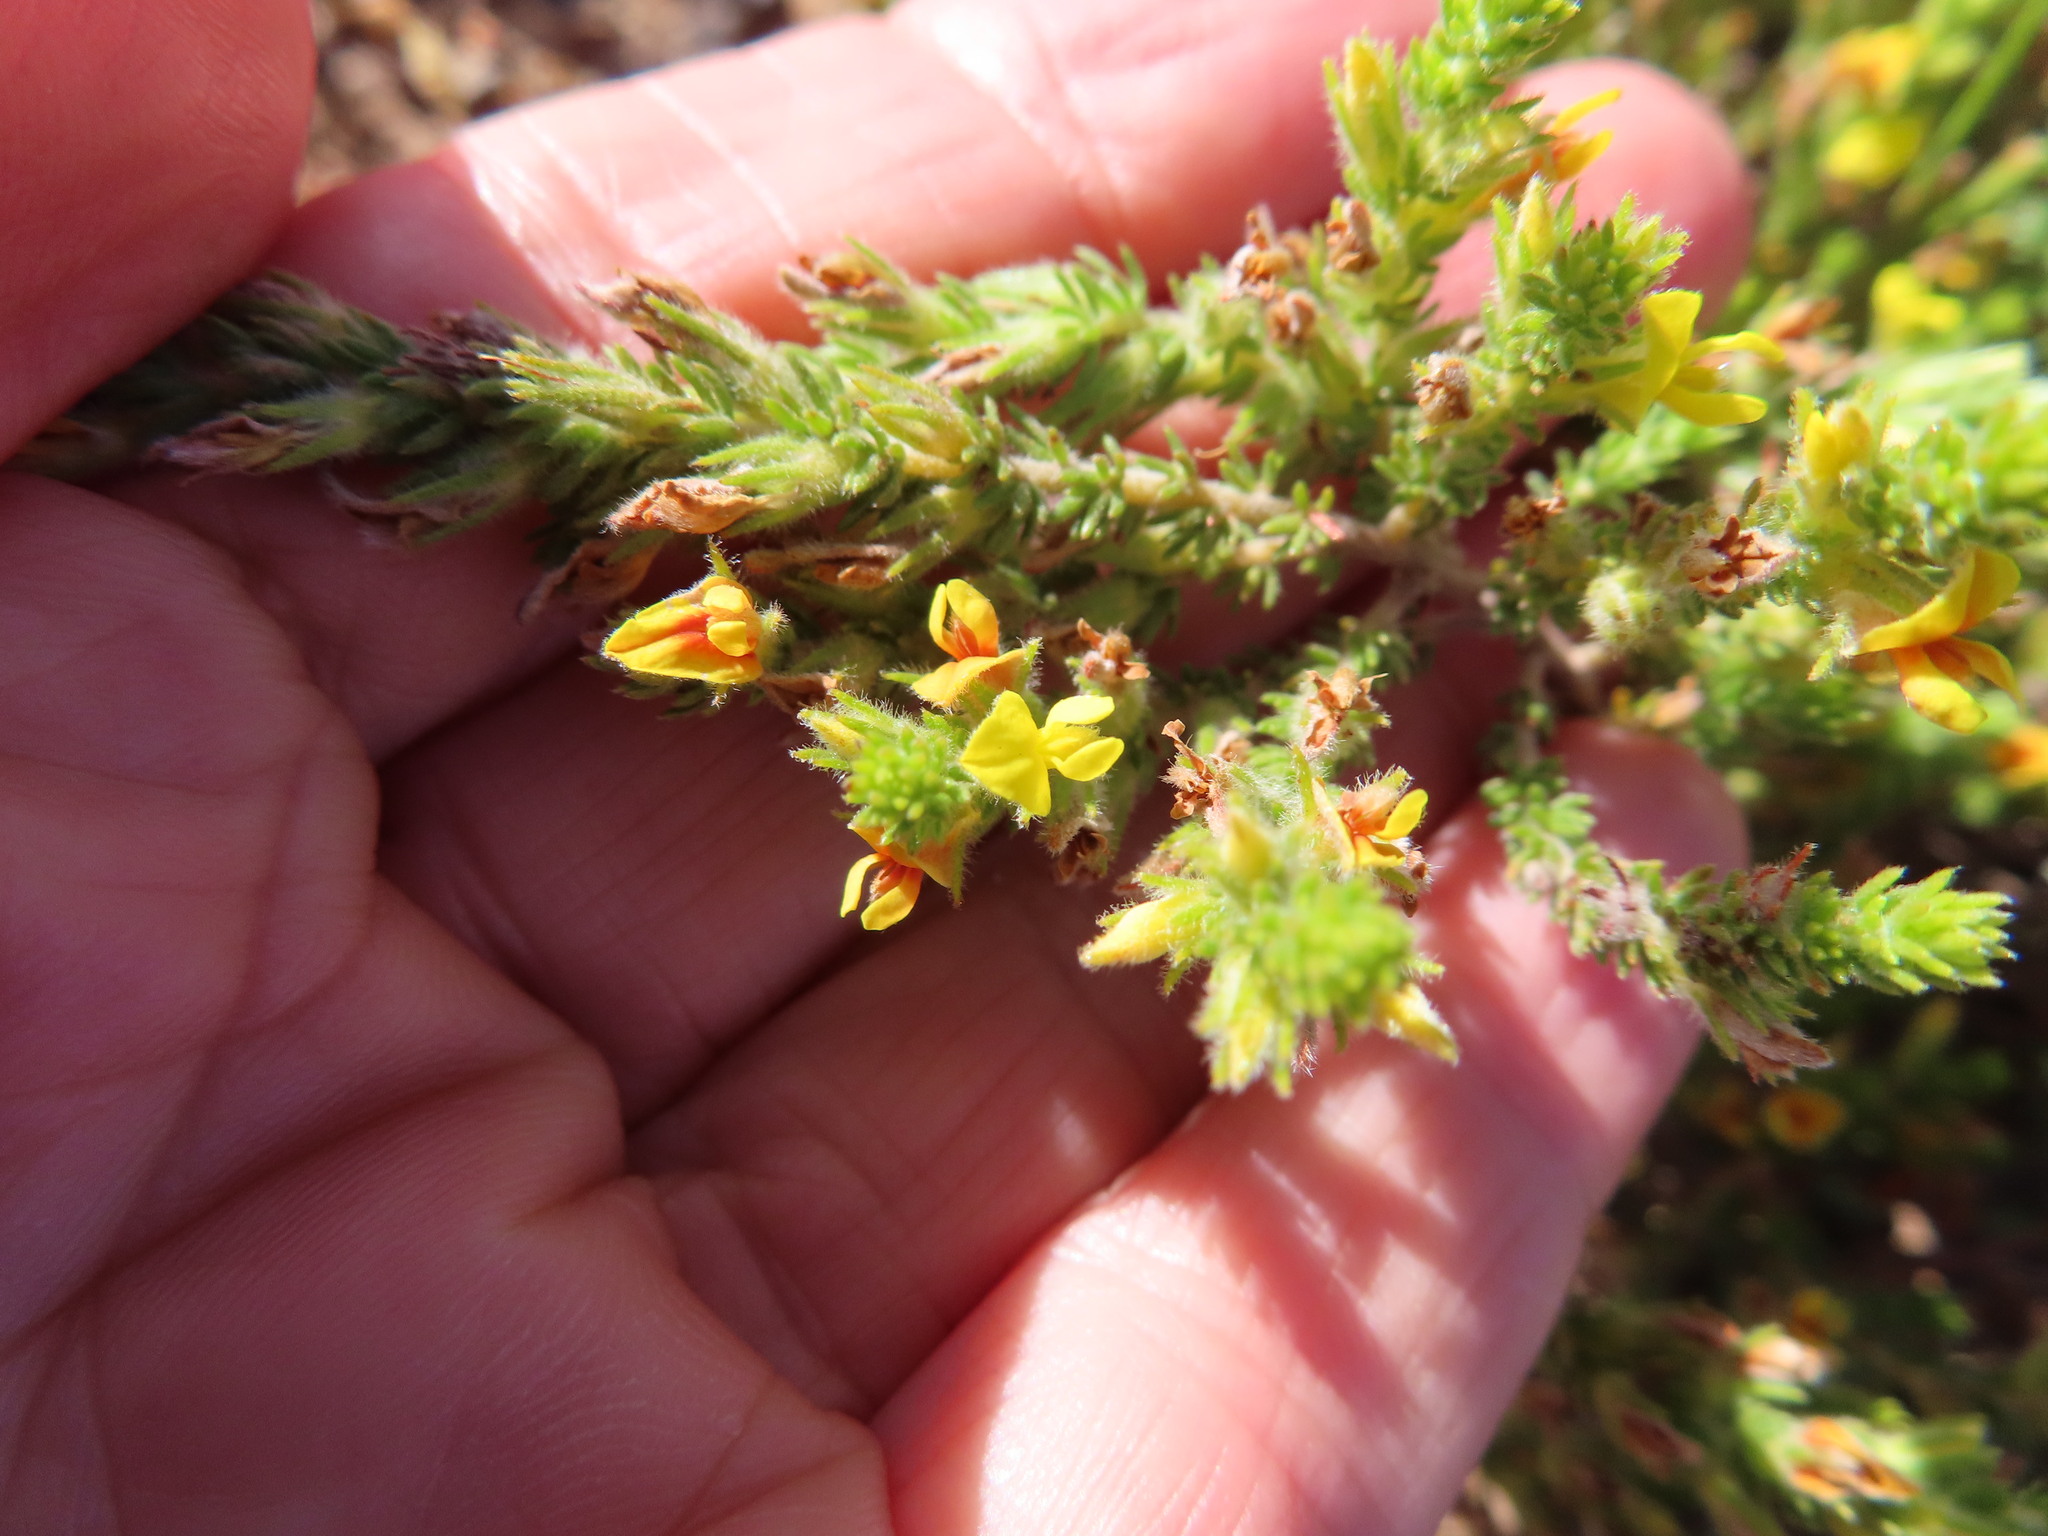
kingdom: Plantae
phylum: Tracheophyta
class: Magnoliopsida
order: Fabales
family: Fabaceae
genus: Aspalathus
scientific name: Aspalathus ericifolia
